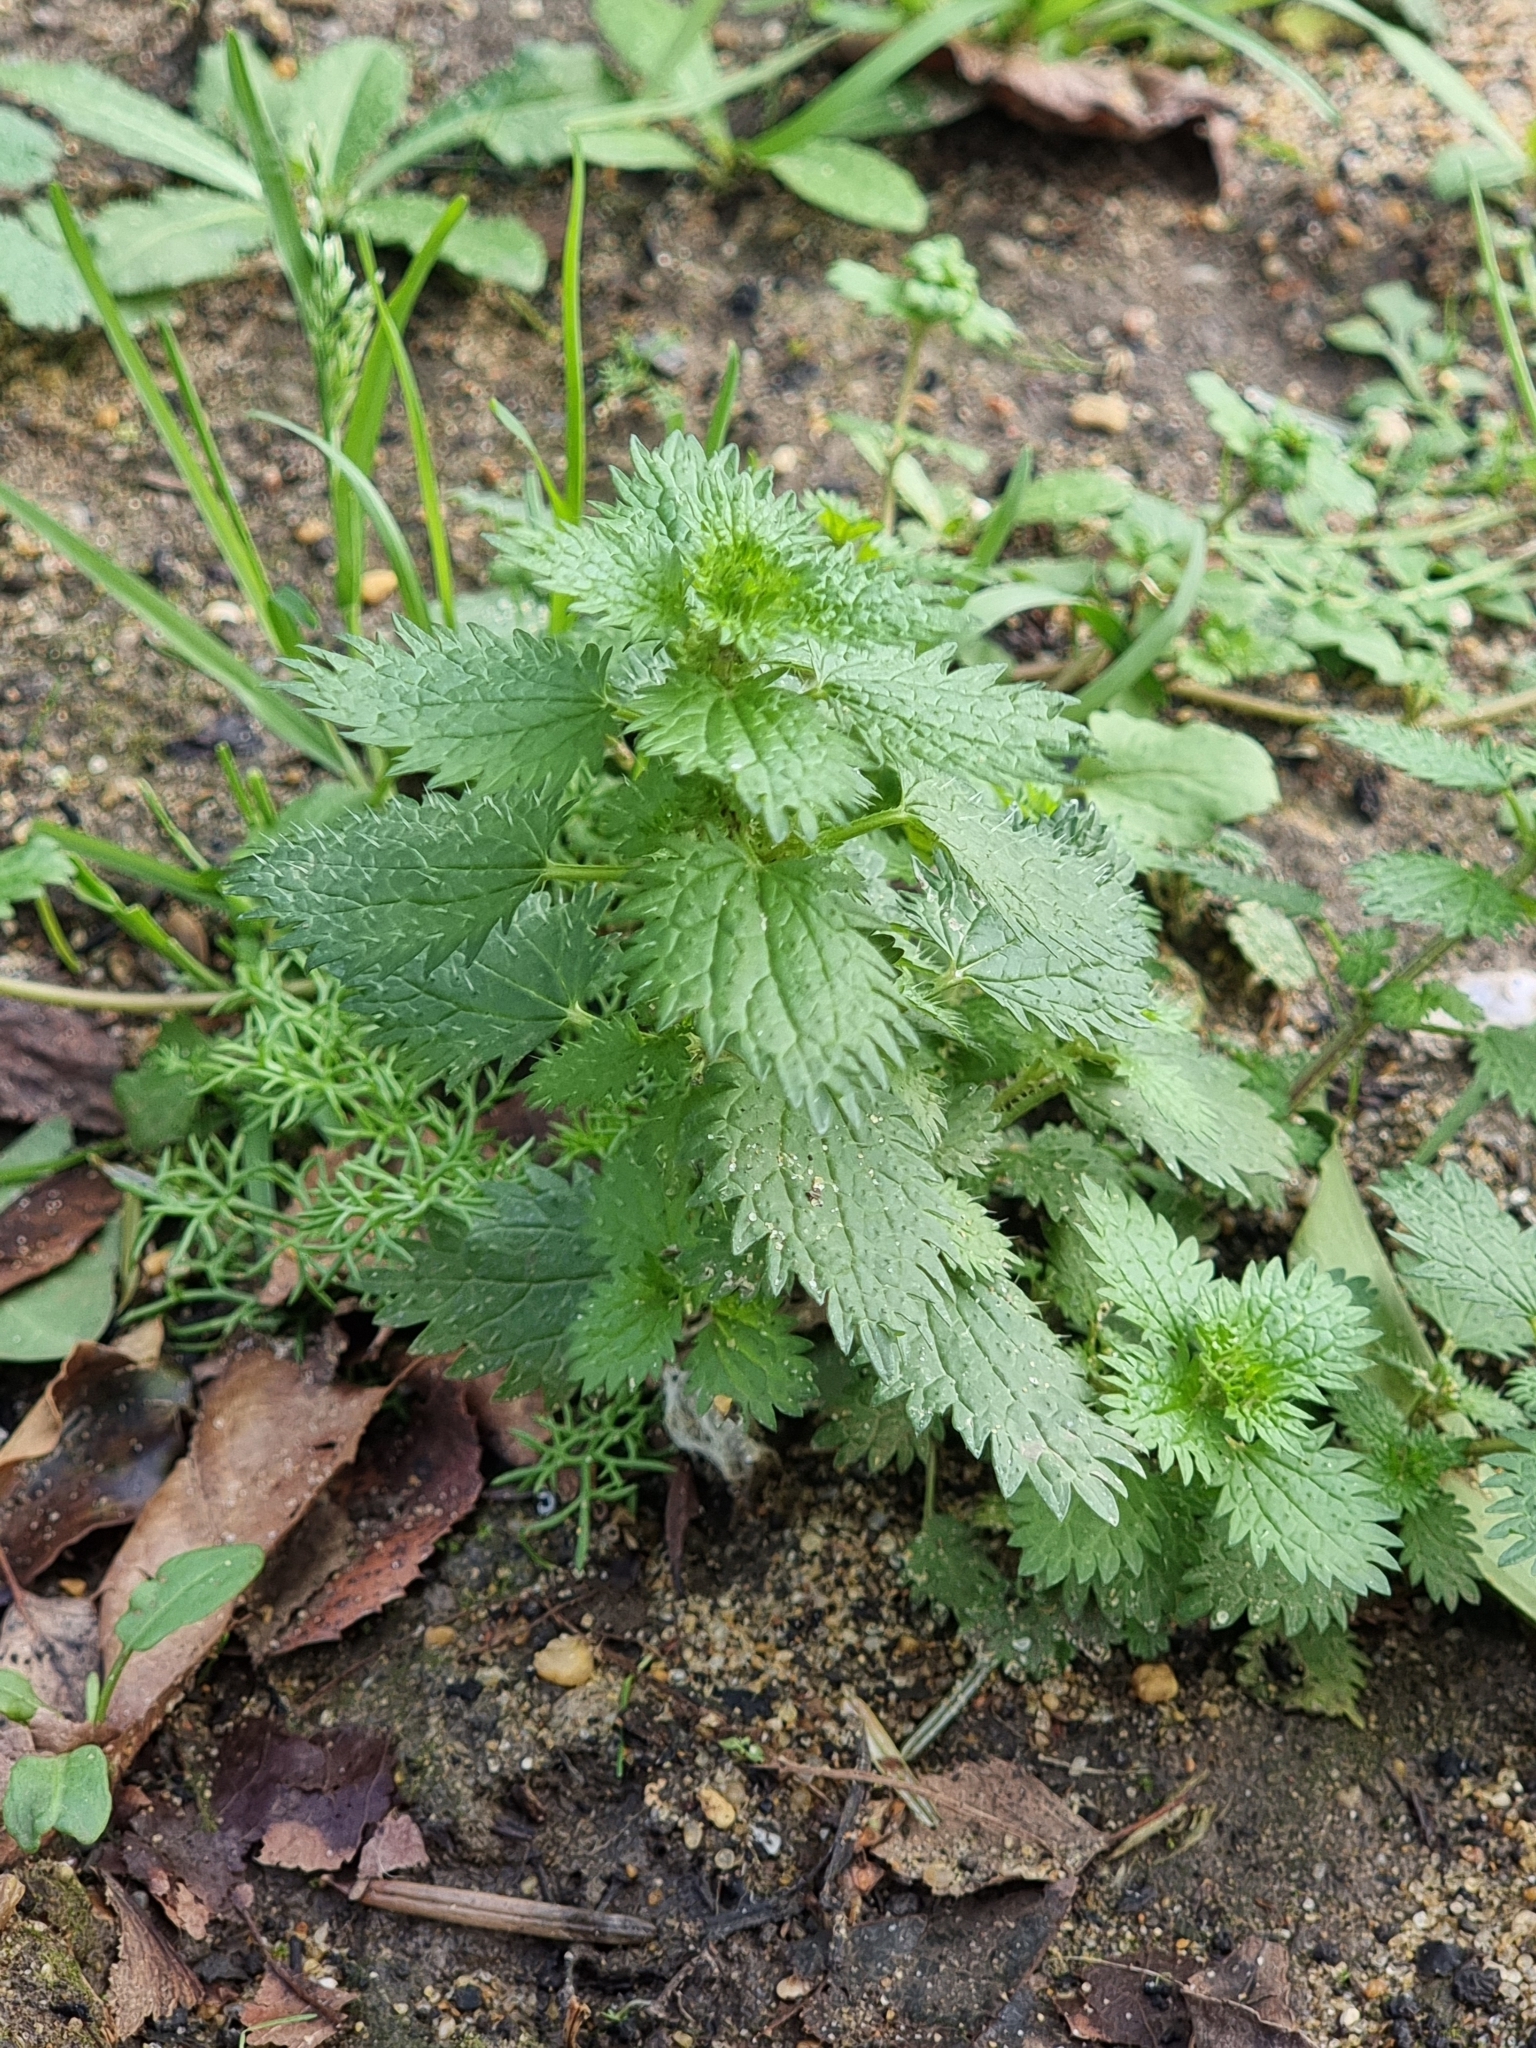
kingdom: Plantae
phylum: Tracheophyta
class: Magnoliopsida
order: Rosales
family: Urticaceae
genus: Urtica
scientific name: Urtica urens
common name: Dwarf nettle
